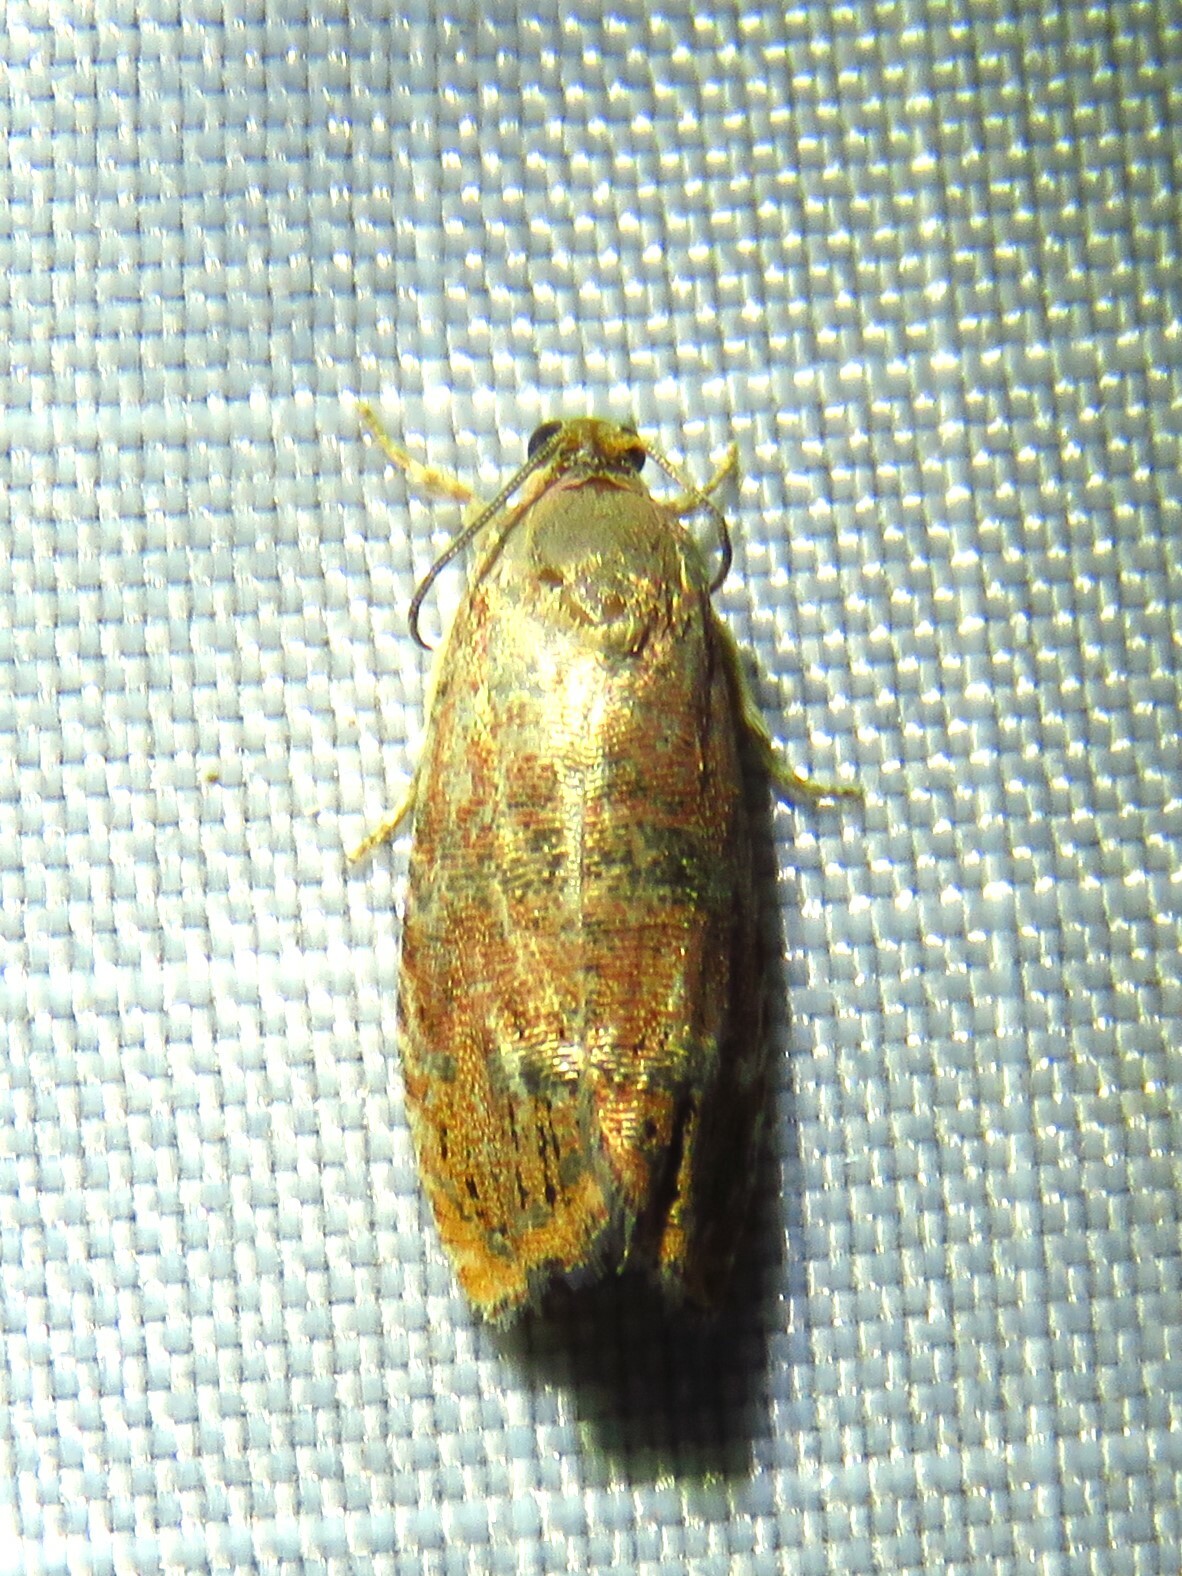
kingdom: Animalia
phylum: Arthropoda
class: Insecta
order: Lepidoptera
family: Tortricidae
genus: Cydia
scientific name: Cydia latiferreana
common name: Filbertworm moth
